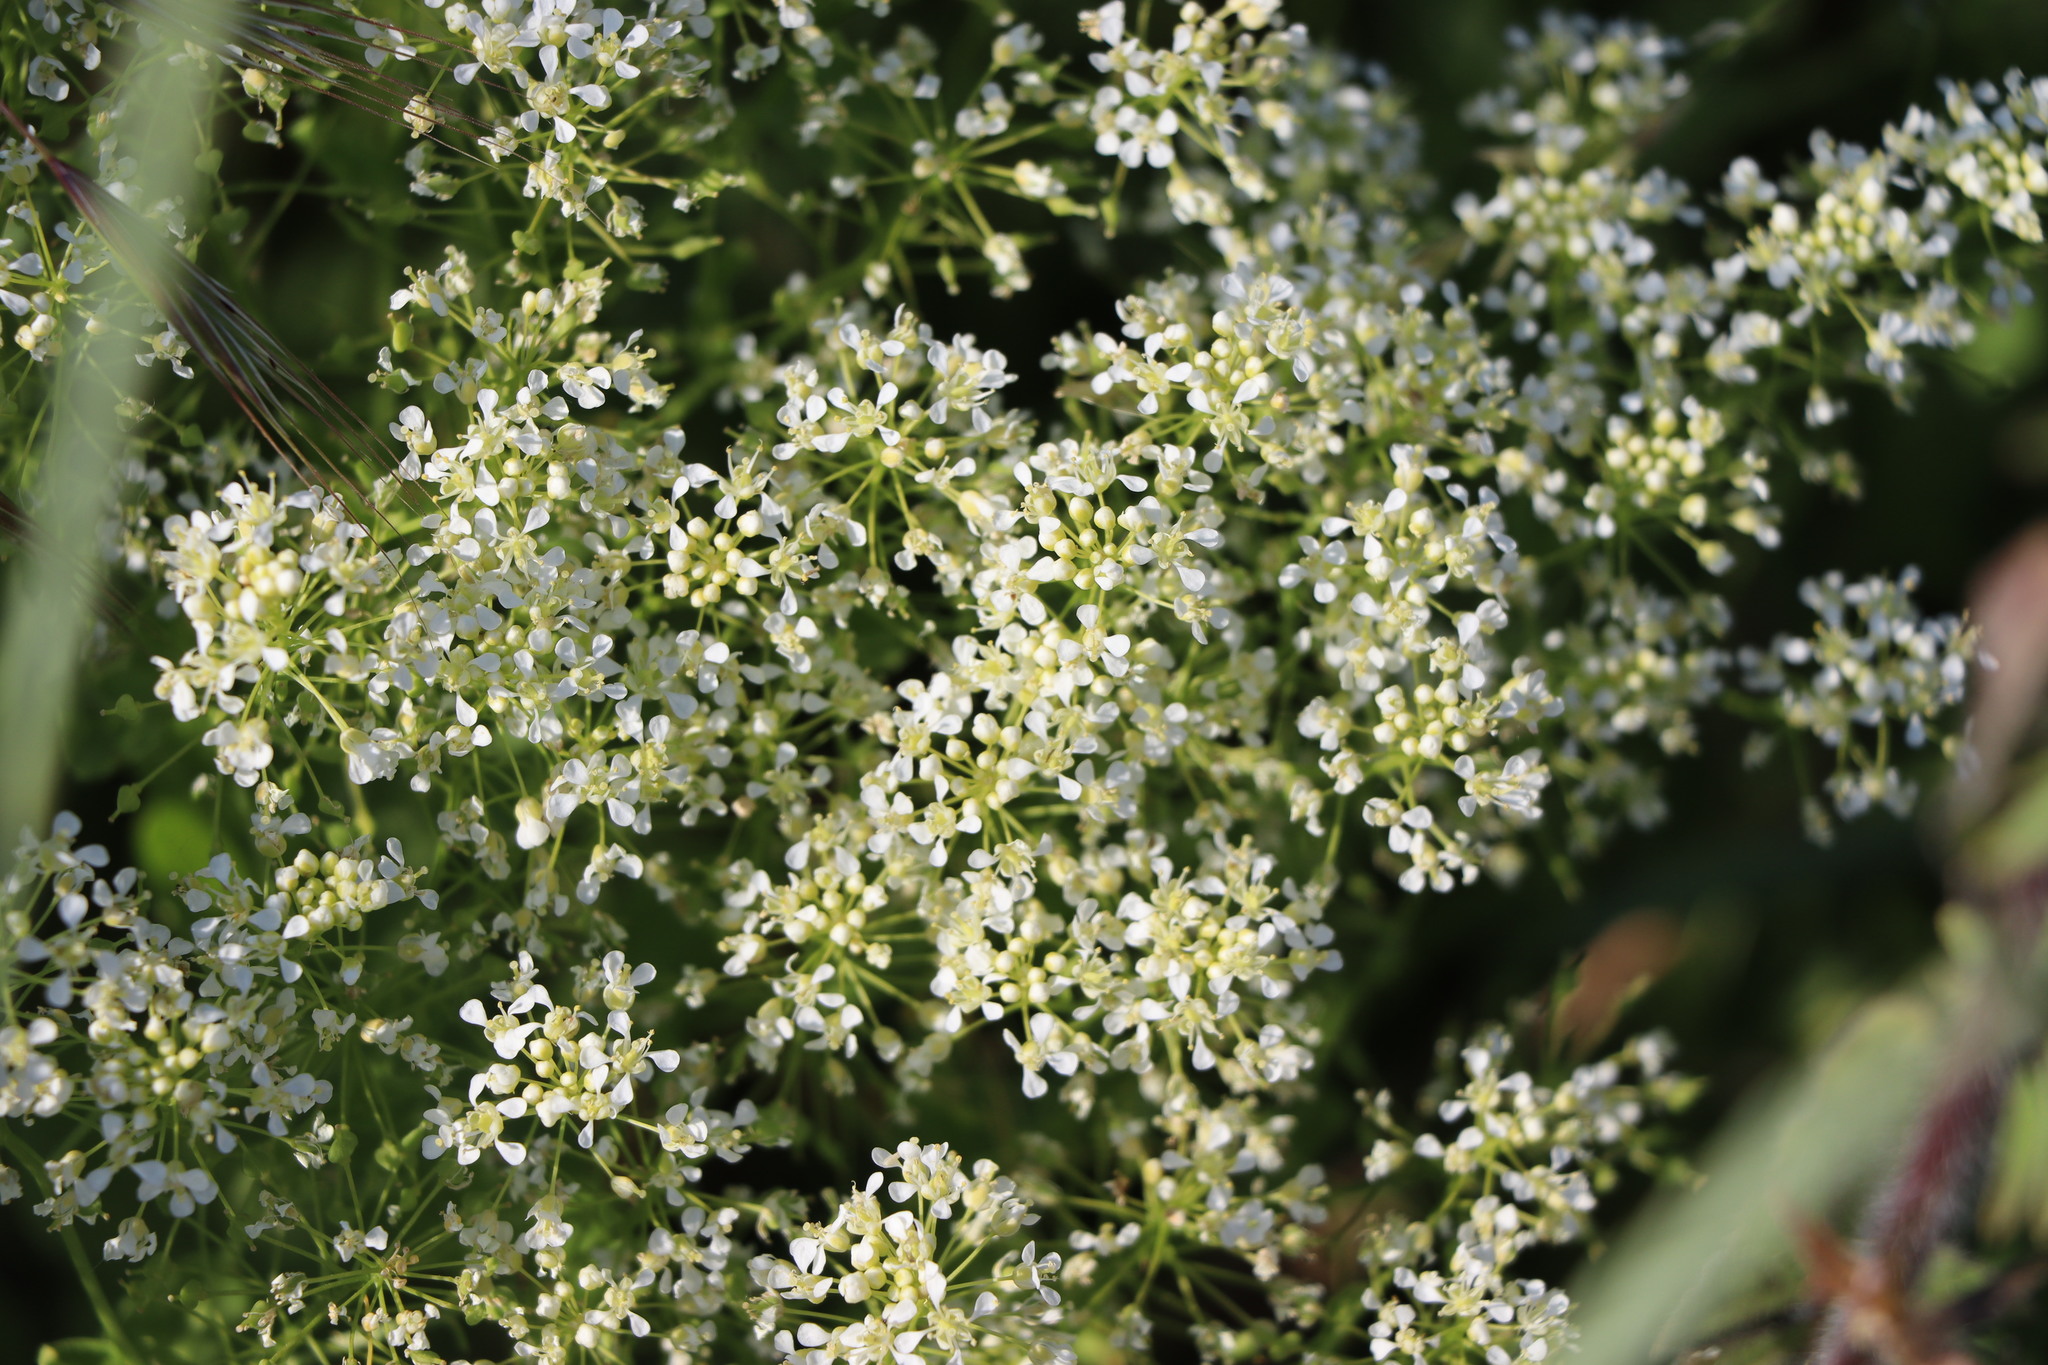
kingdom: Plantae
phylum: Tracheophyta
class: Magnoliopsida
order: Brassicales
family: Brassicaceae
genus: Lepidium
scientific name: Lepidium draba
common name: Hoary cress
